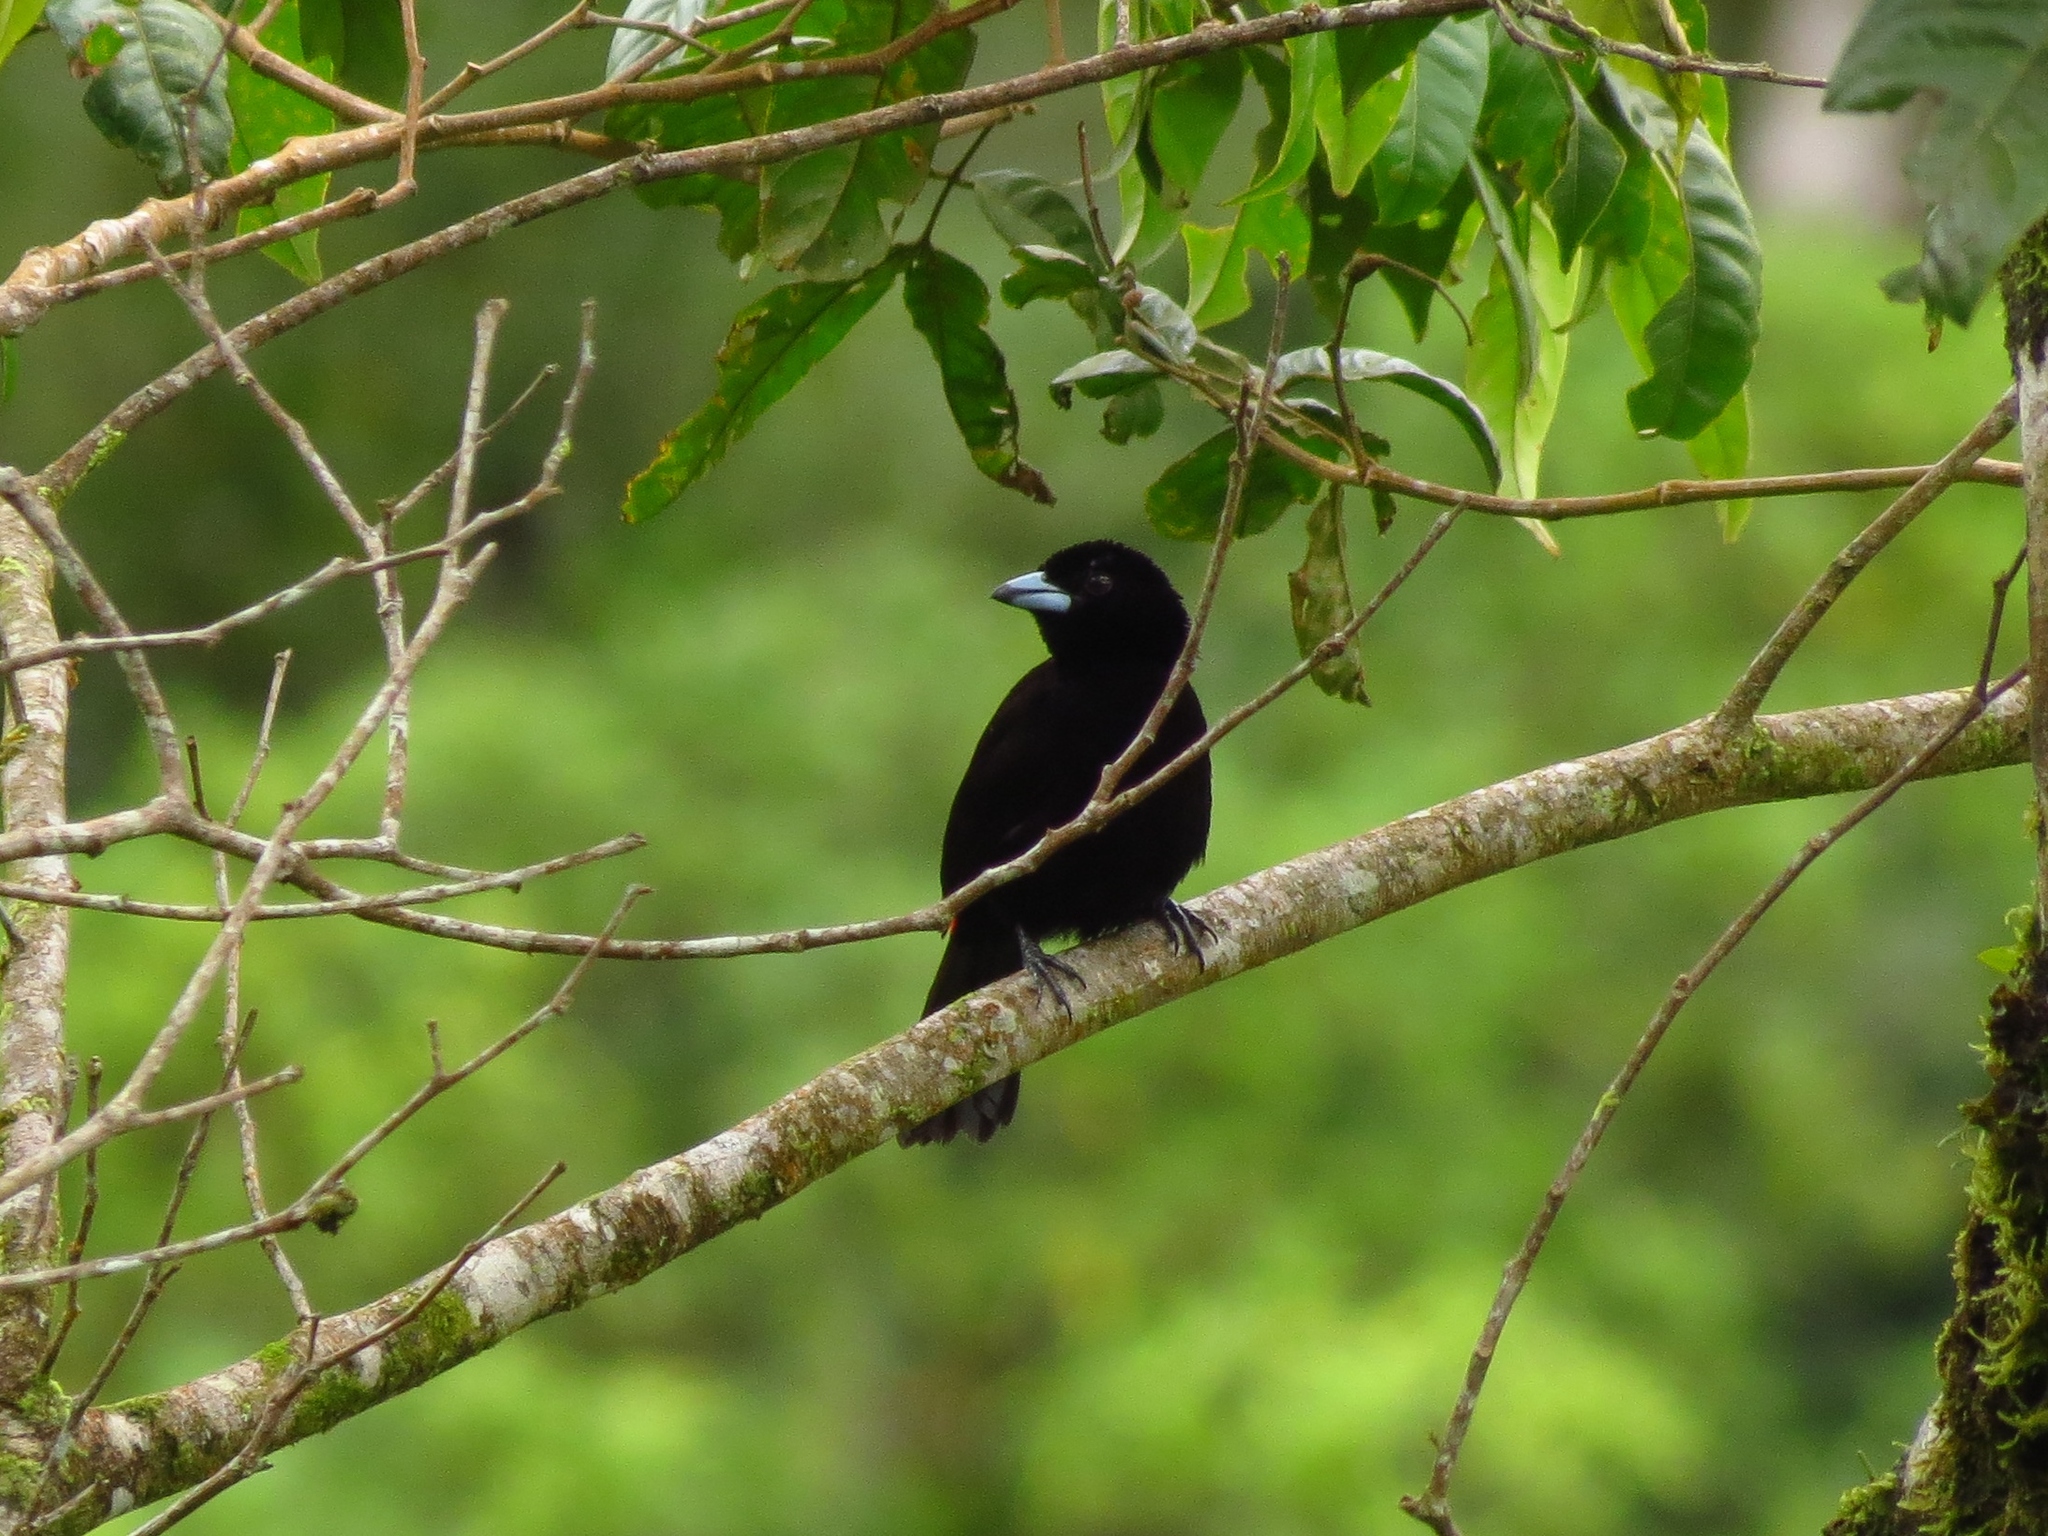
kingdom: Animalia
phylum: Chordata
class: Aves
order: Passeriformes
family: Thraupidae
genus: Ramphocelus
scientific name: Ramphocelus passerinii
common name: Passerini's tanager
